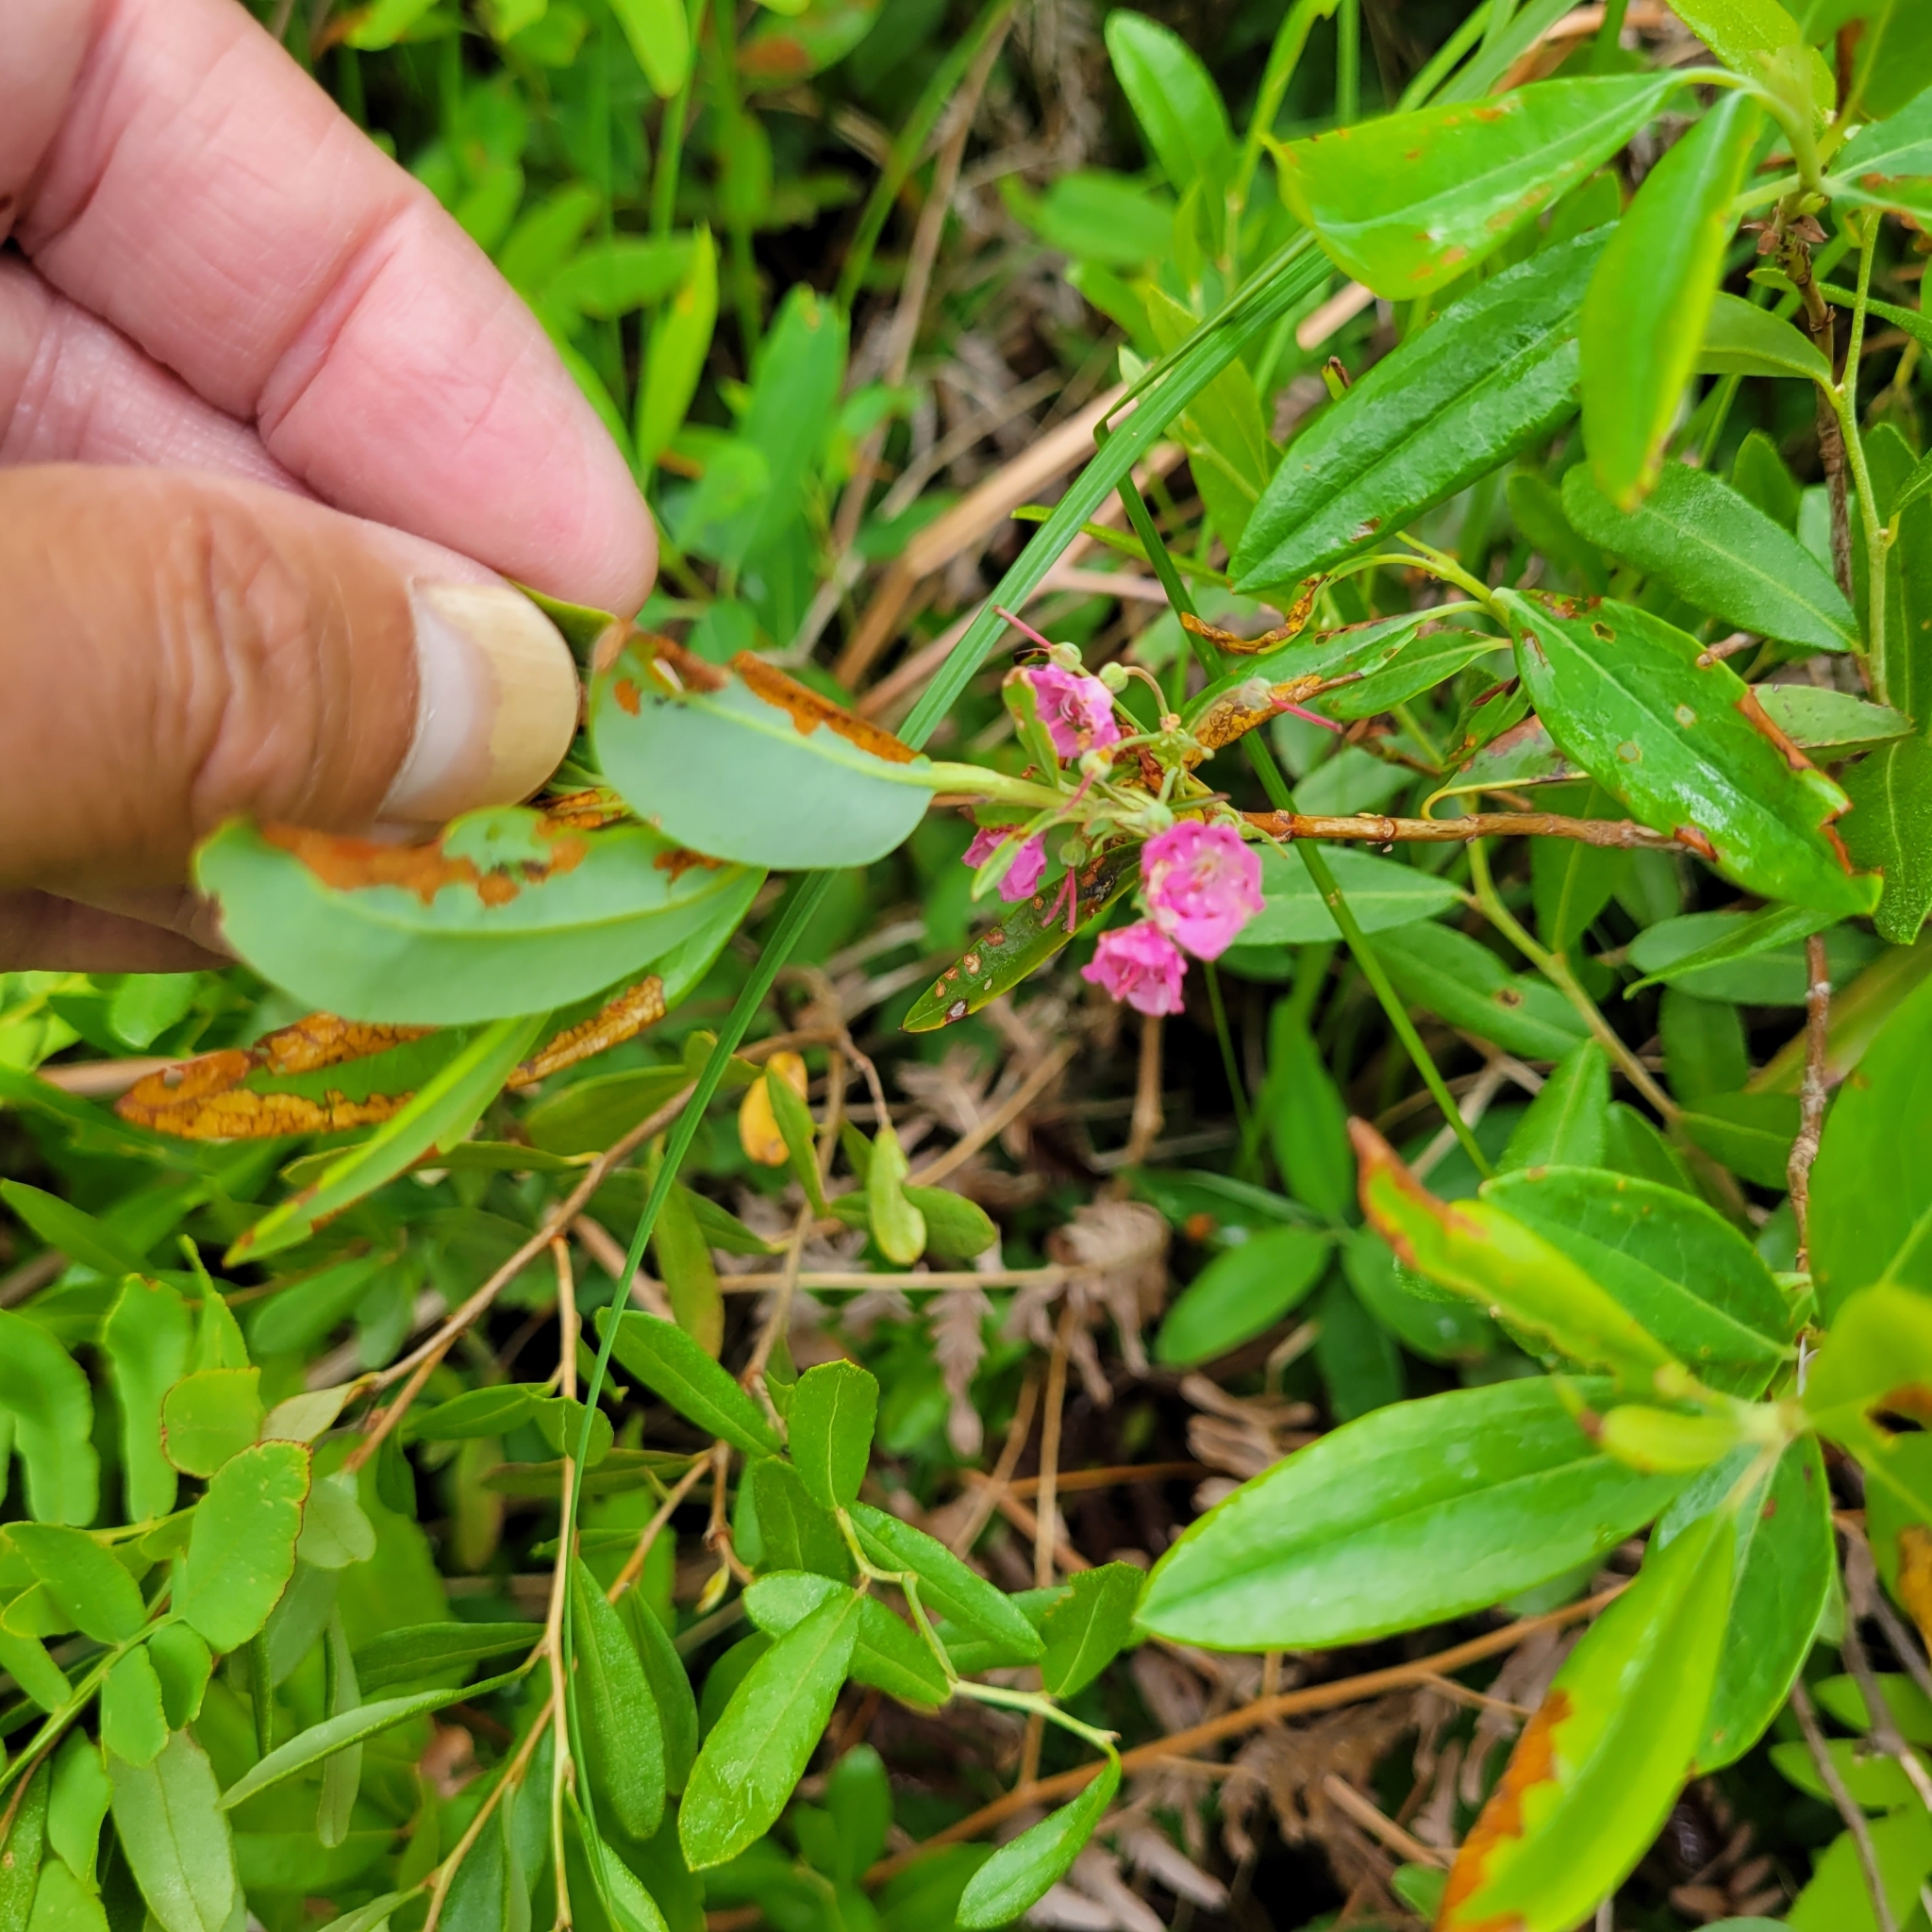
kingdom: Plantae
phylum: Tracheophyta
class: Magnoliopsida
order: Ericales
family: Ericaceae
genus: Kalmia
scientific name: Kalmia angustifolia
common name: Sheep-laurel
